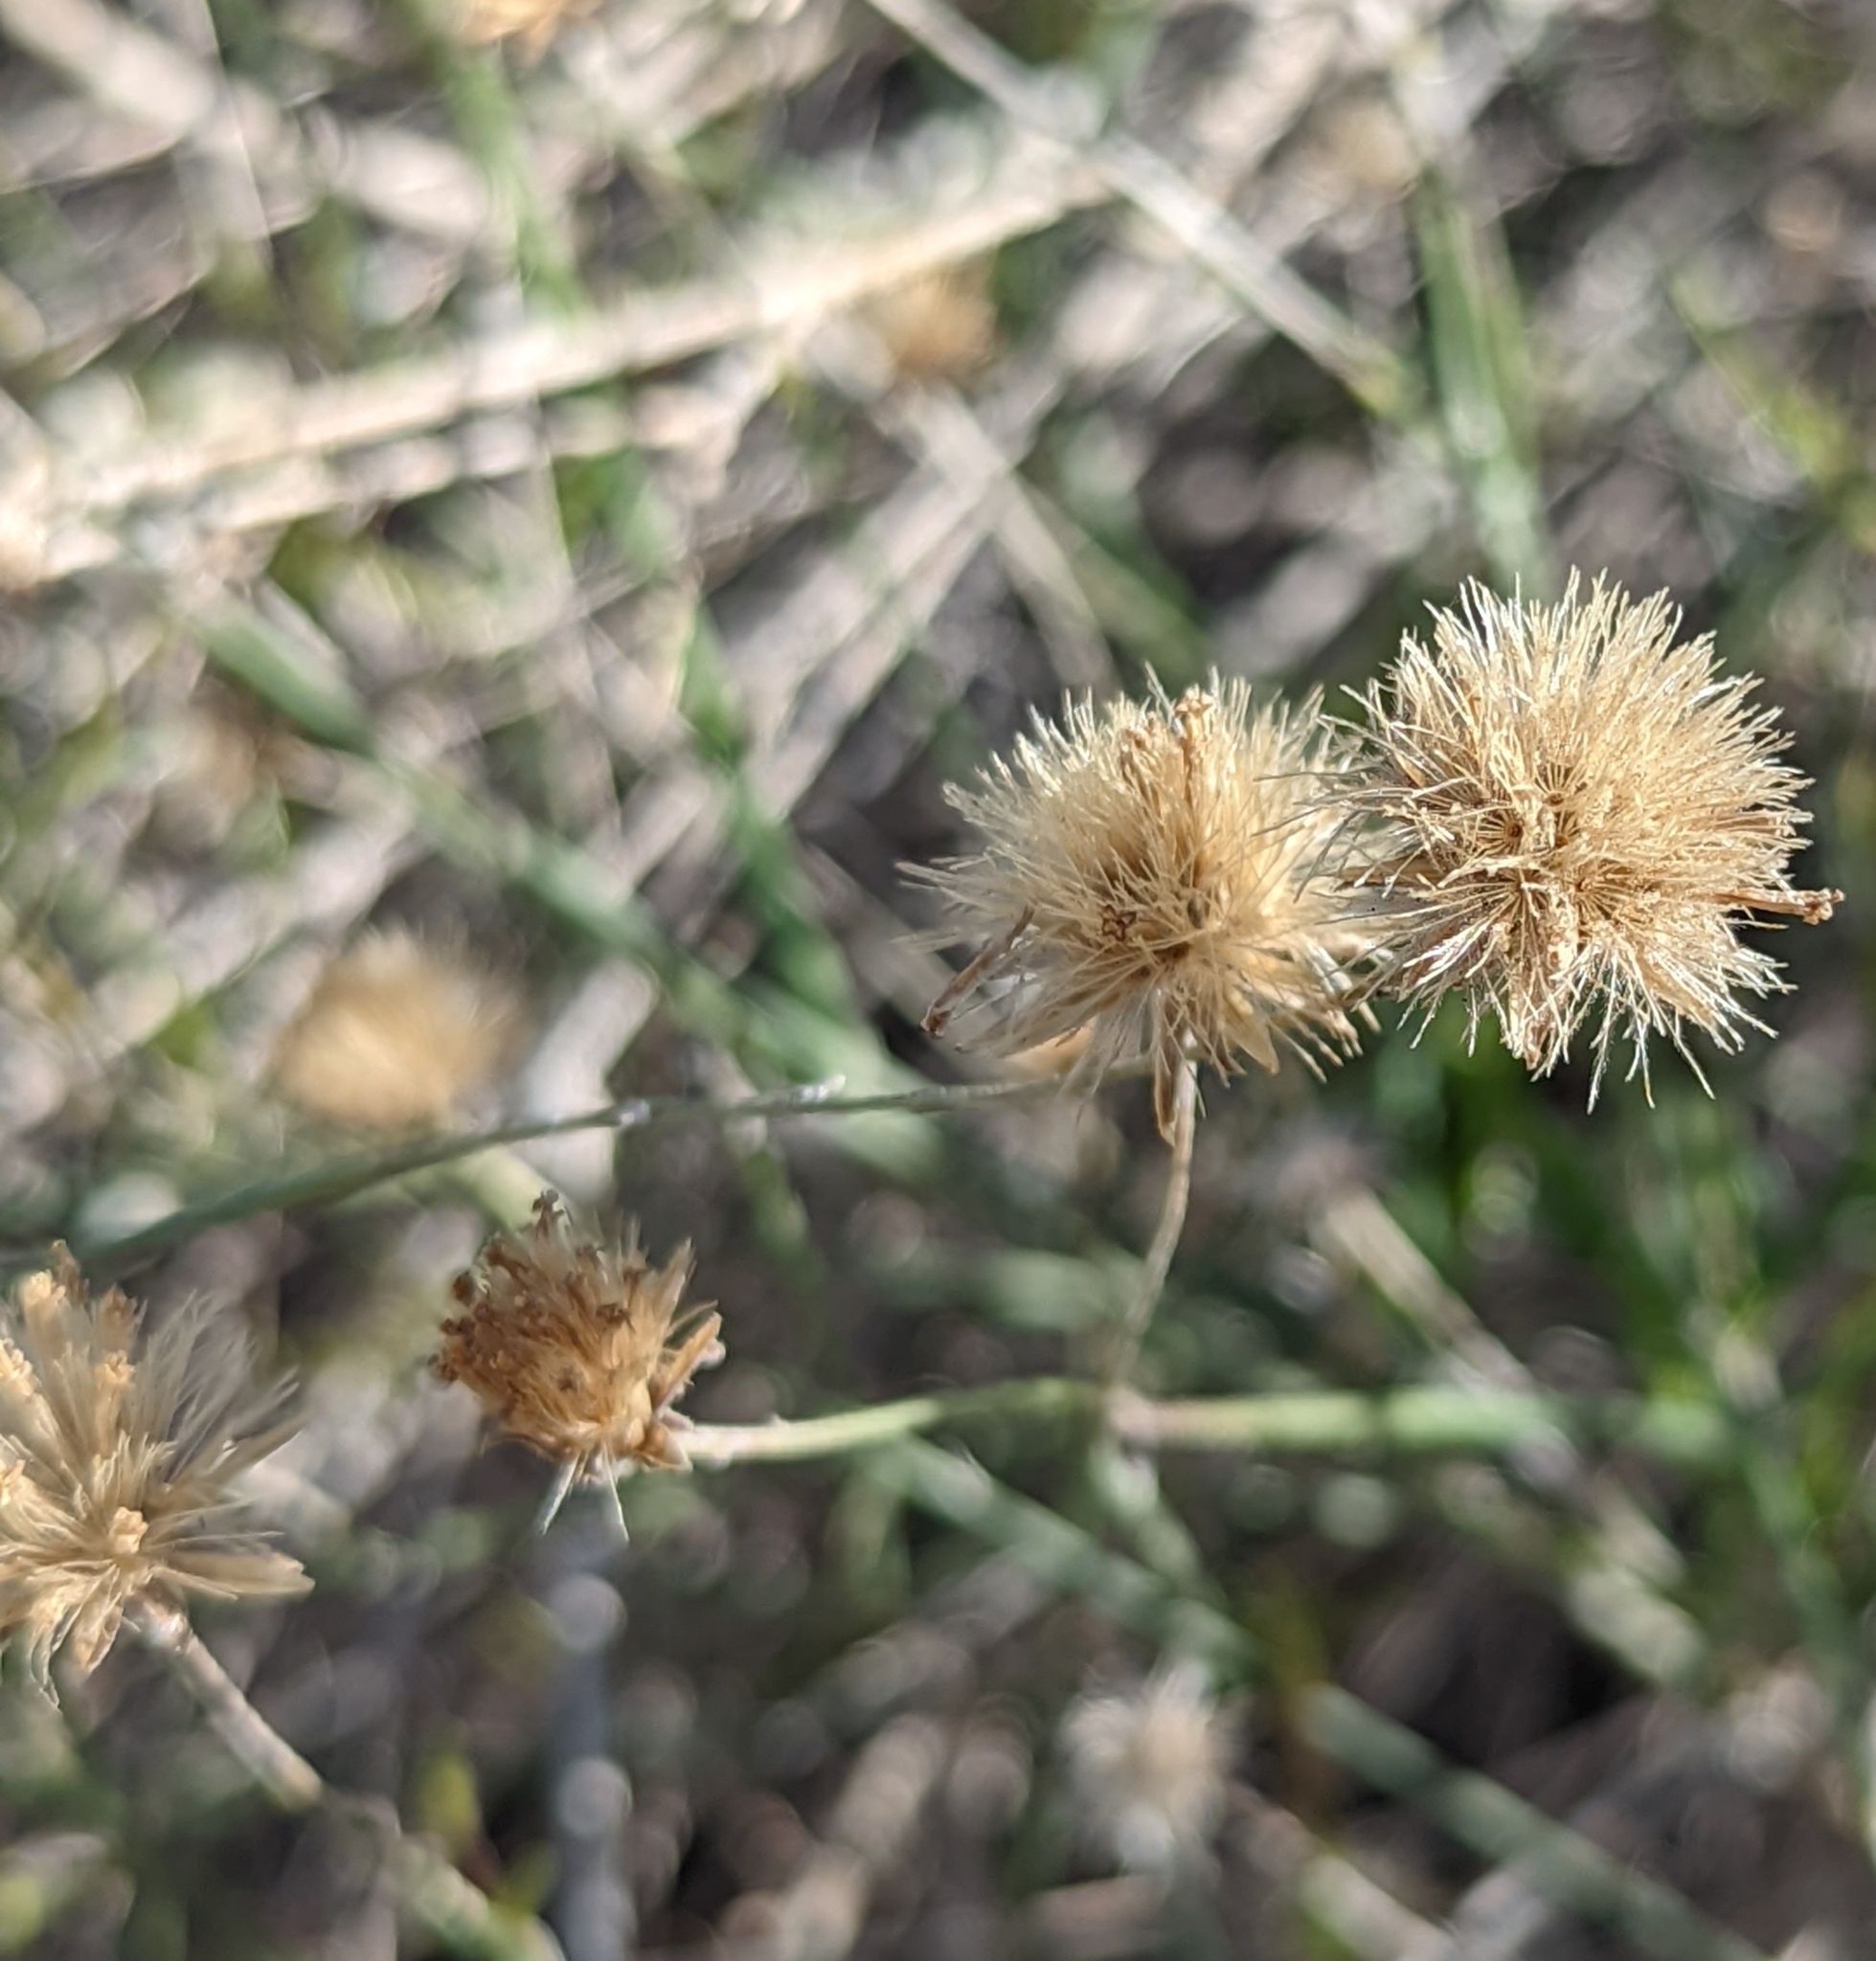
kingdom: Plantae
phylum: Tracheophyta
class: Magnoliopsida
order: Asterales
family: Asteraceae
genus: Bebbia
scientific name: Bebbia juncea
